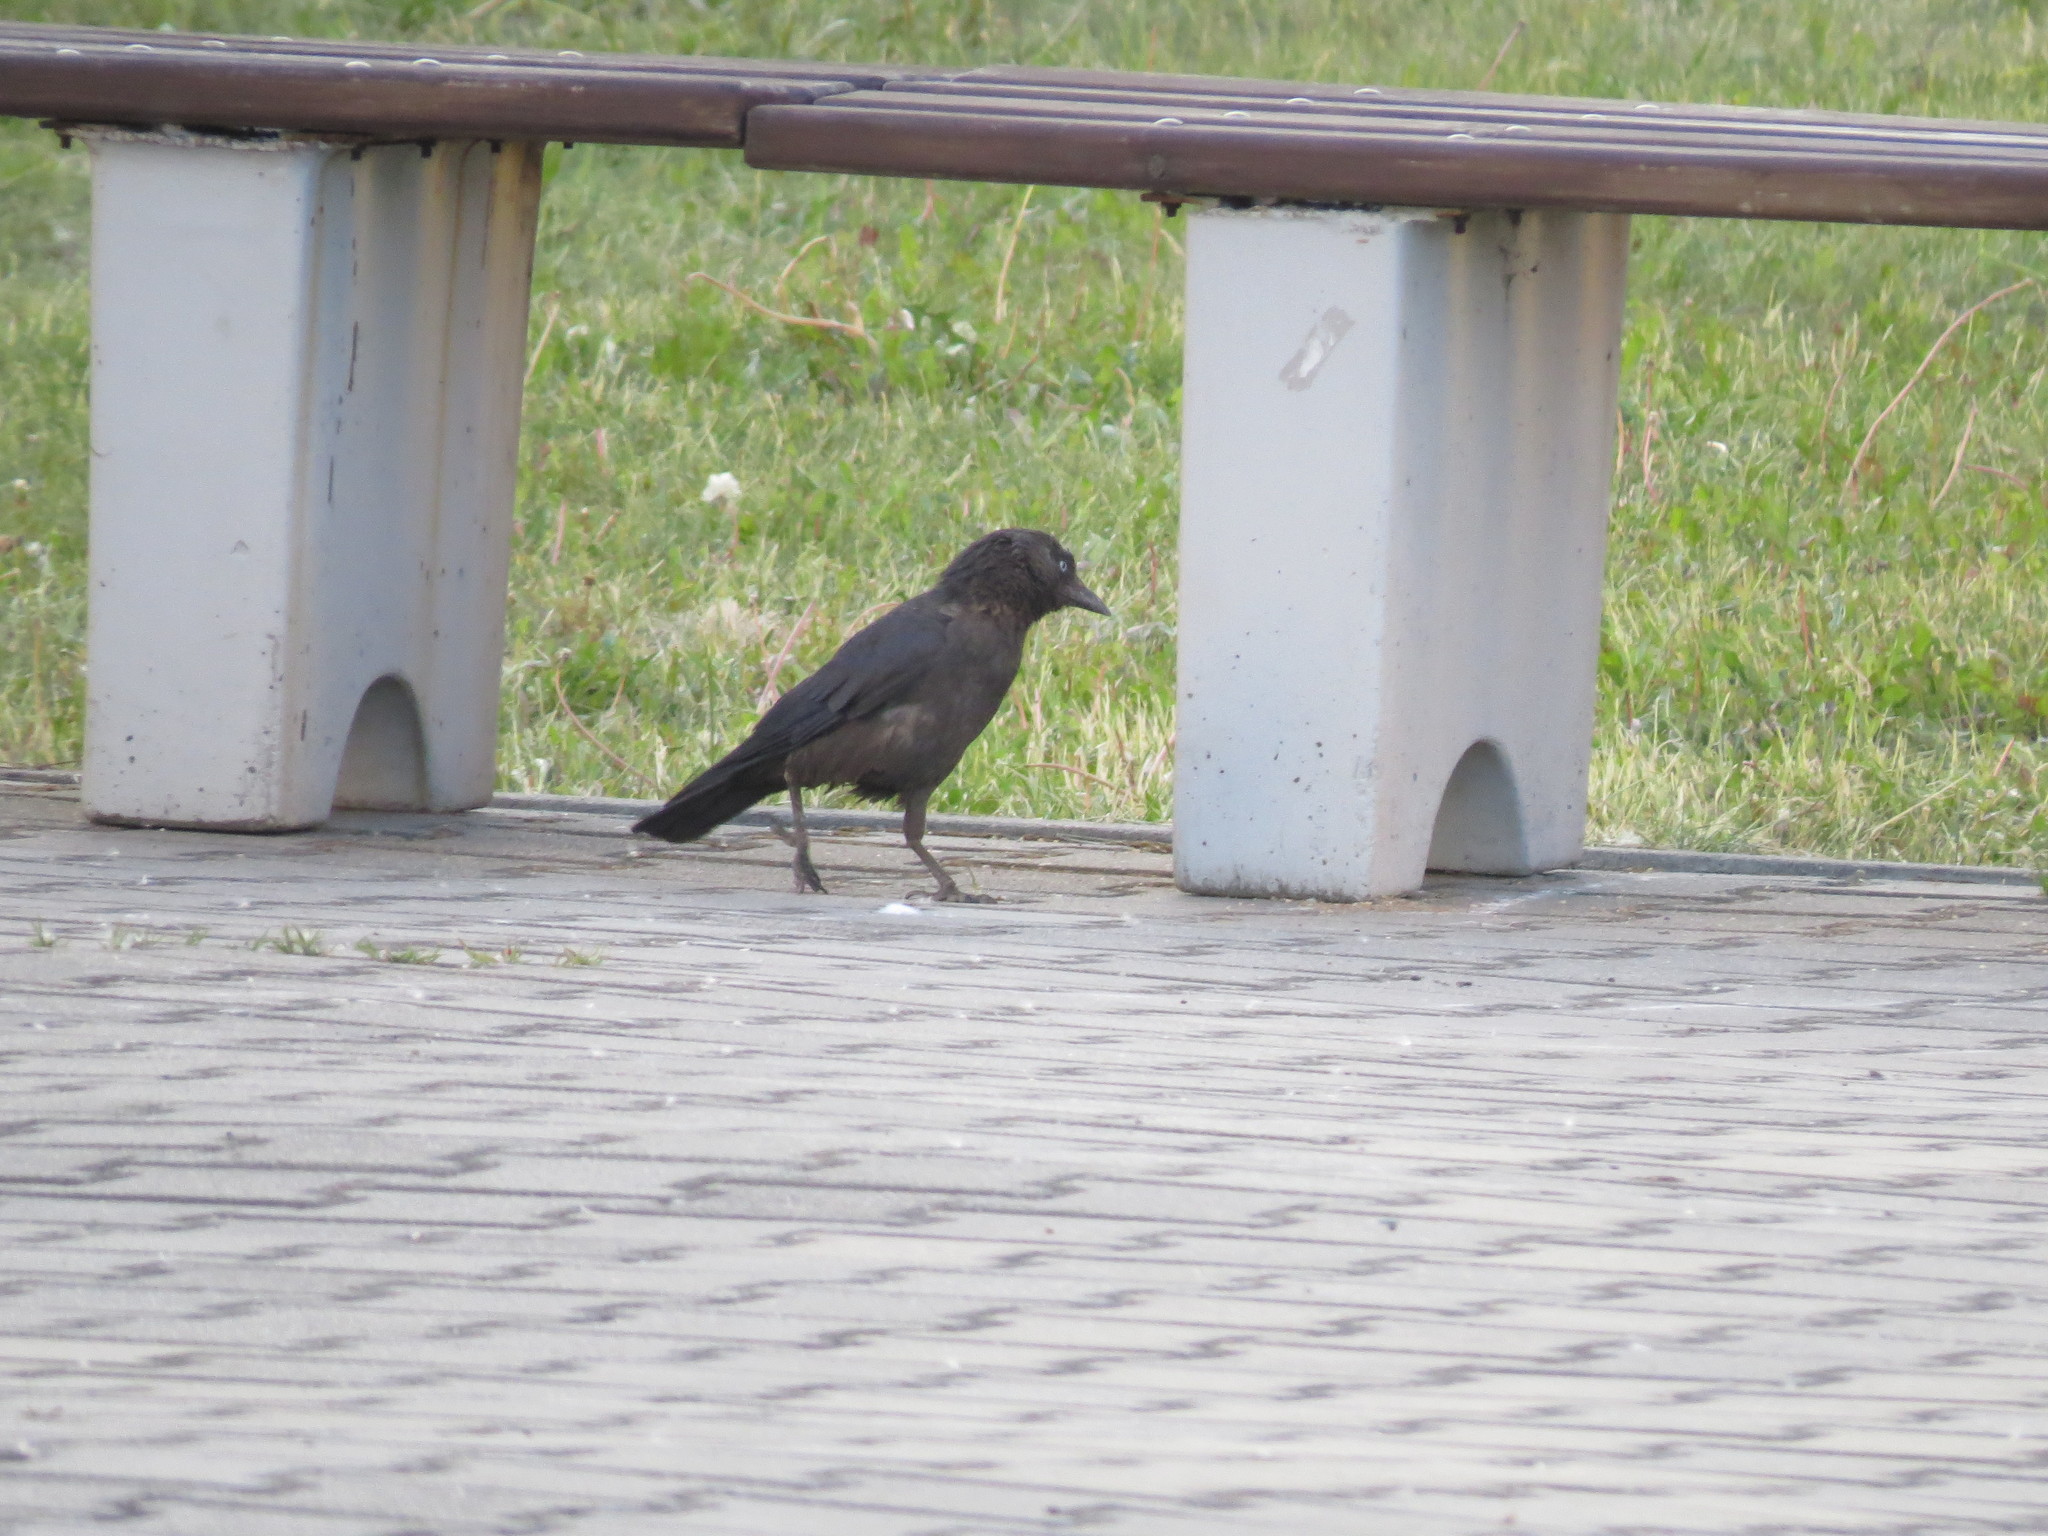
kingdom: Animalia
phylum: Chordata
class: Aves
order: Passeriformes
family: Corvidae
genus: Coloeus
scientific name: Coloeus monedula
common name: Western jackdaw
